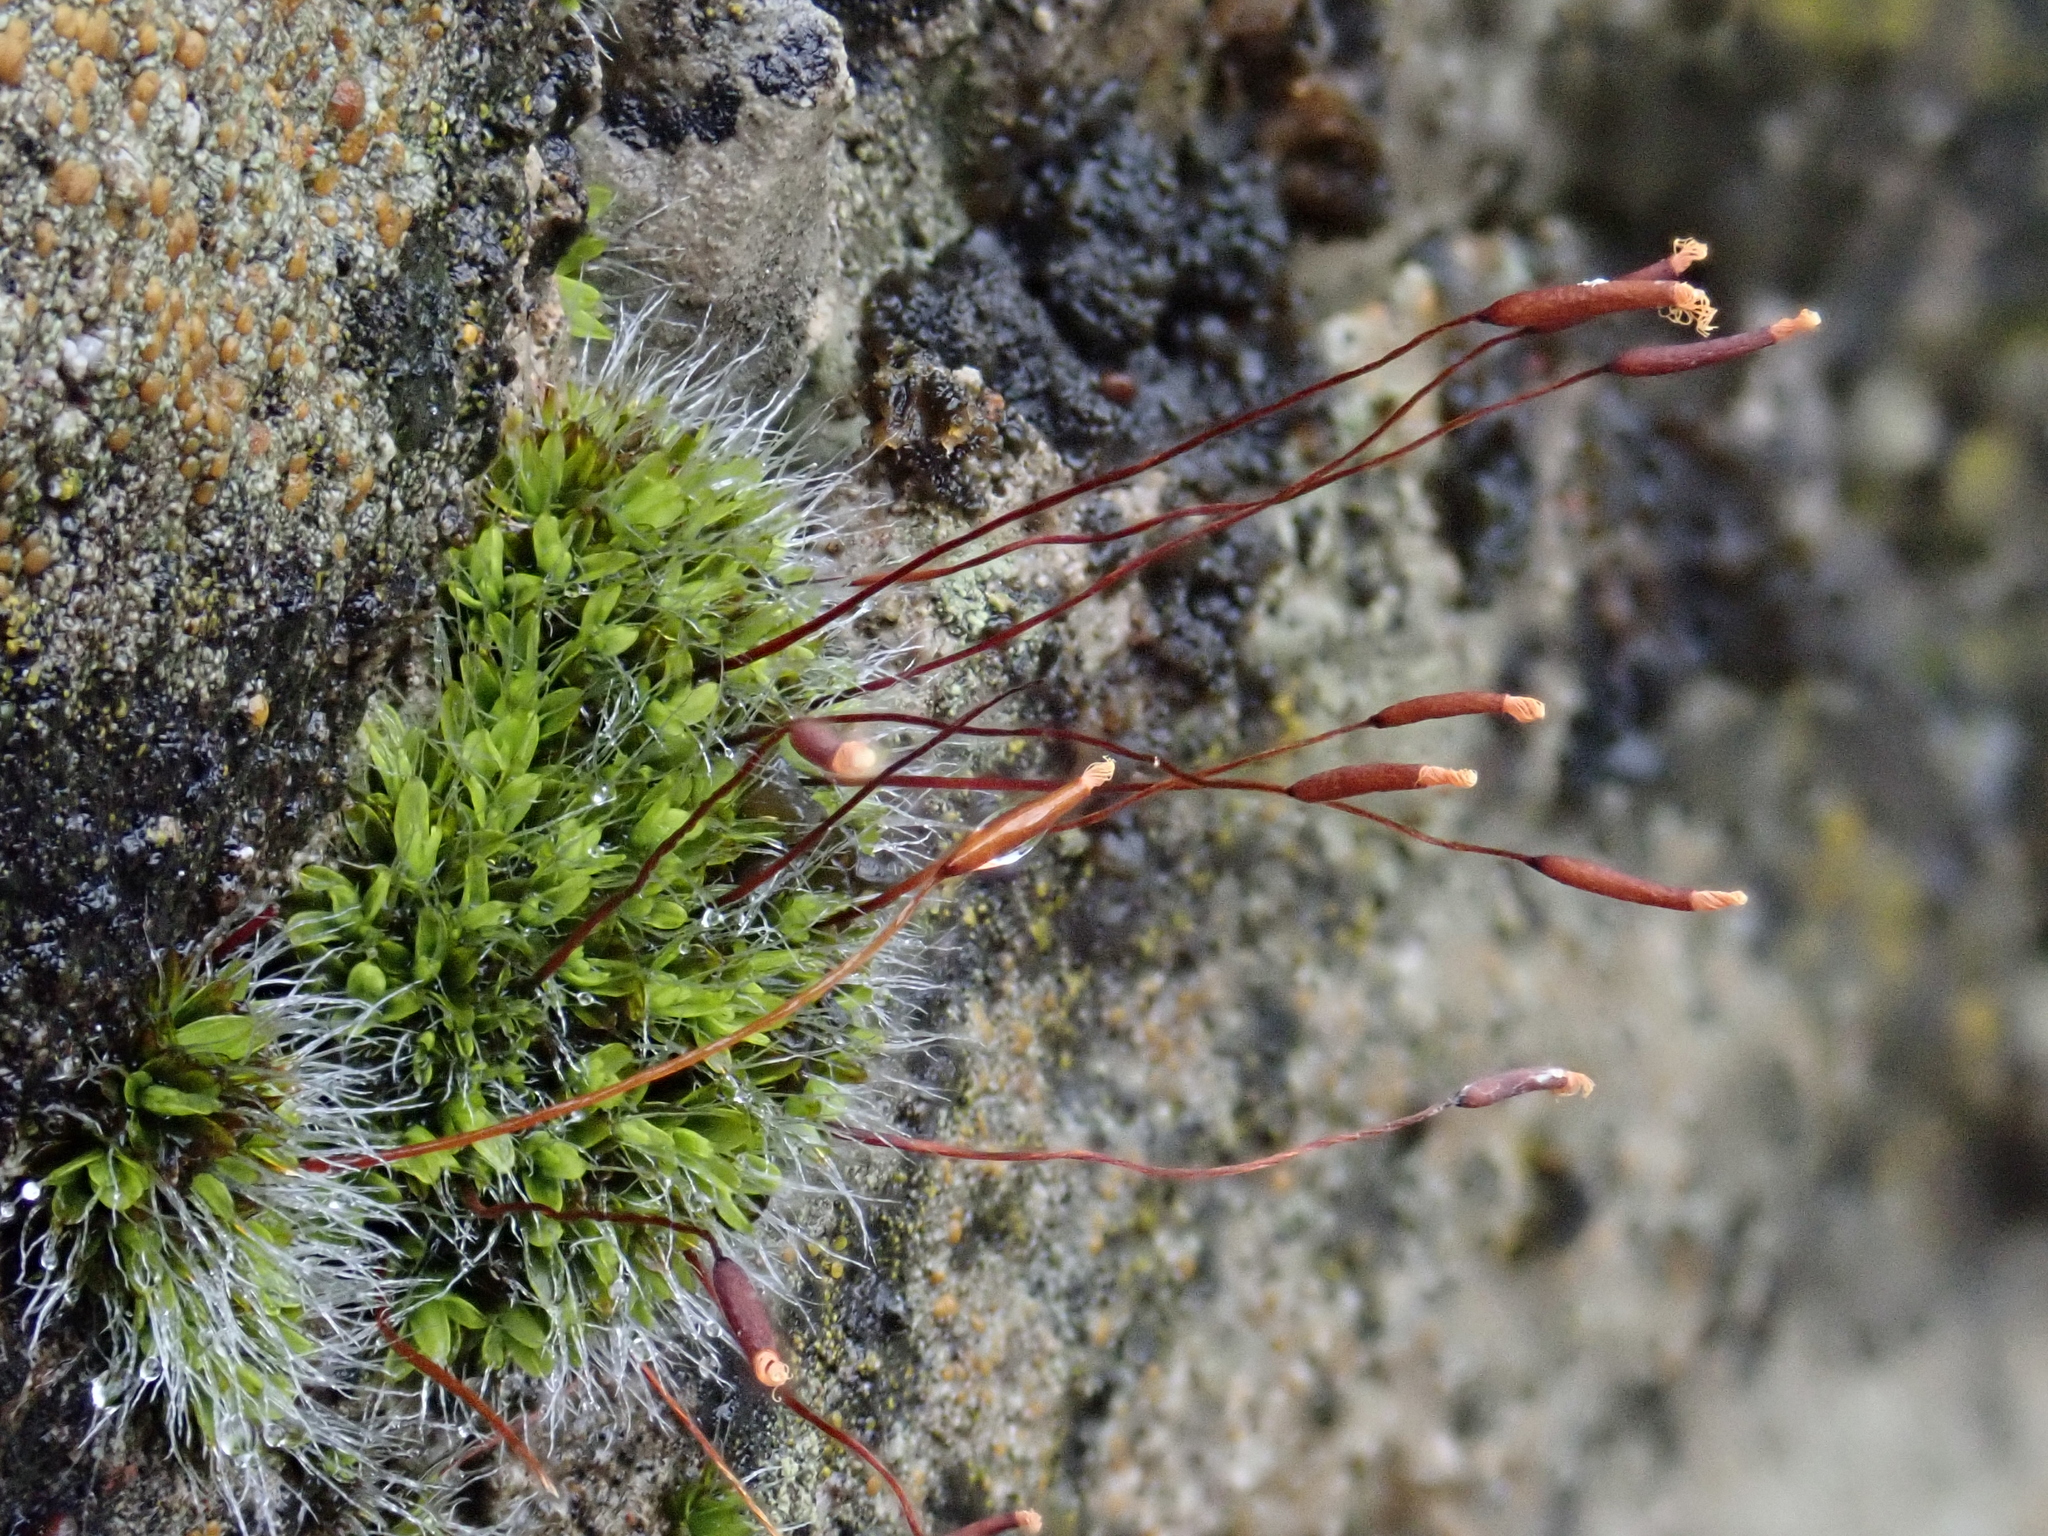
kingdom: Plantae
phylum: Bryophyta
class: Bryopsida
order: Pottiales
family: Pottiaceae
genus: Tortula
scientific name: Tortula muralis
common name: Wall screw-moss
